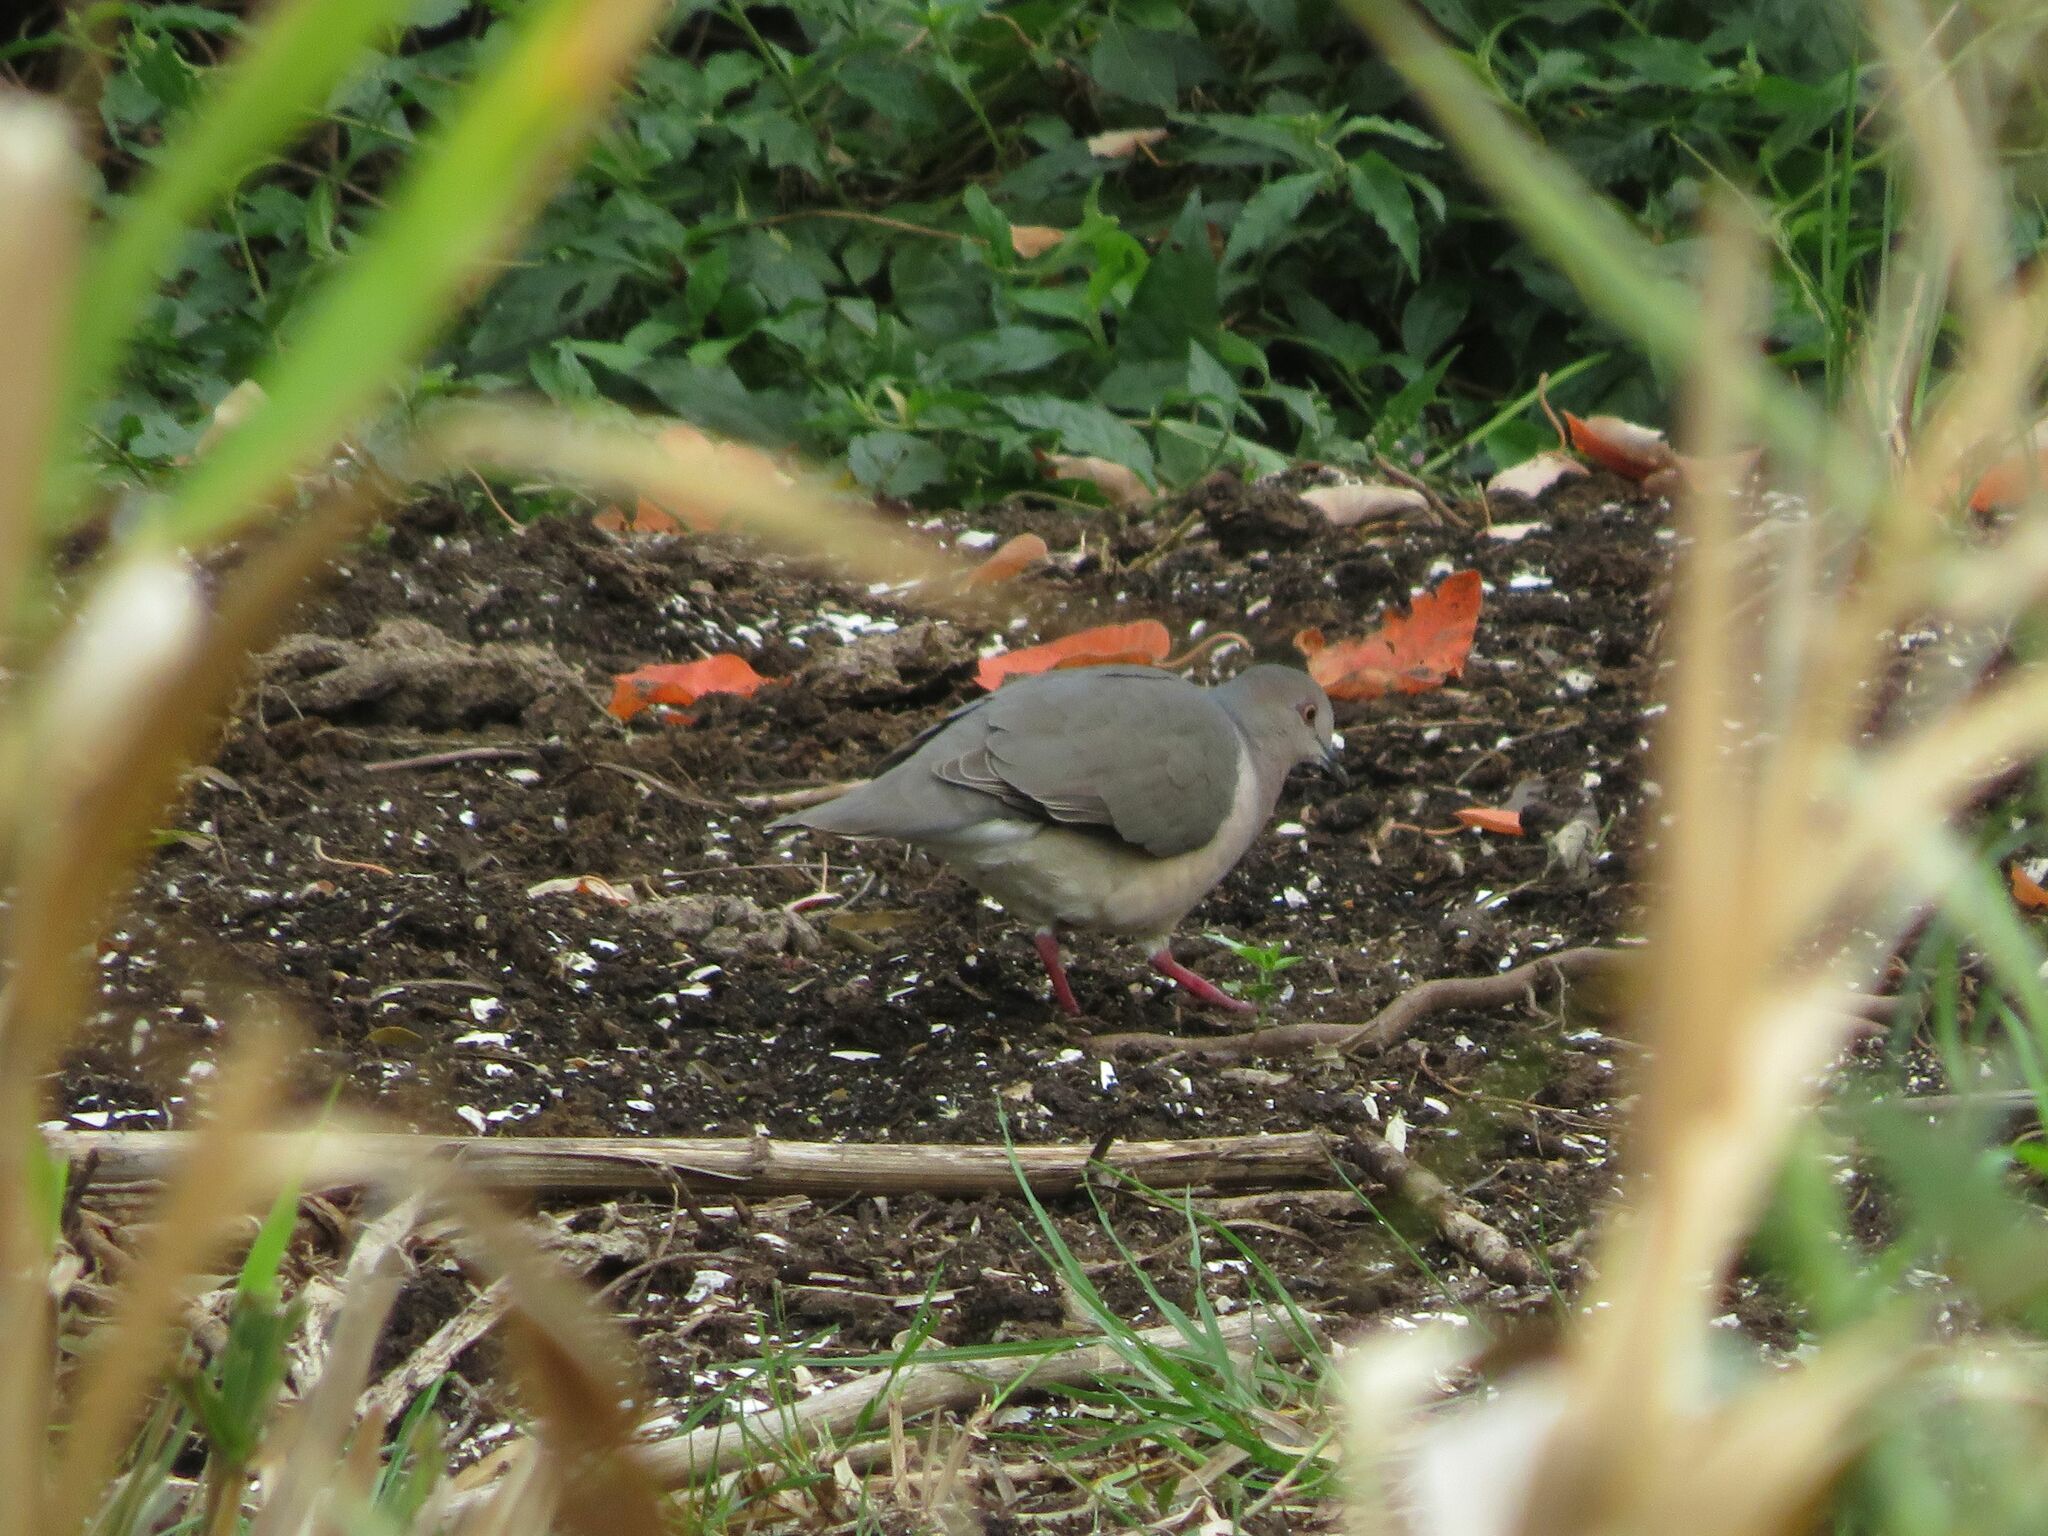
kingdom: Animalia
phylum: Chordata
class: Aves
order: Columbiformes
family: Columbidae
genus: Leptotila
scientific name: Leptotila verreauxi
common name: White-tipped dove
